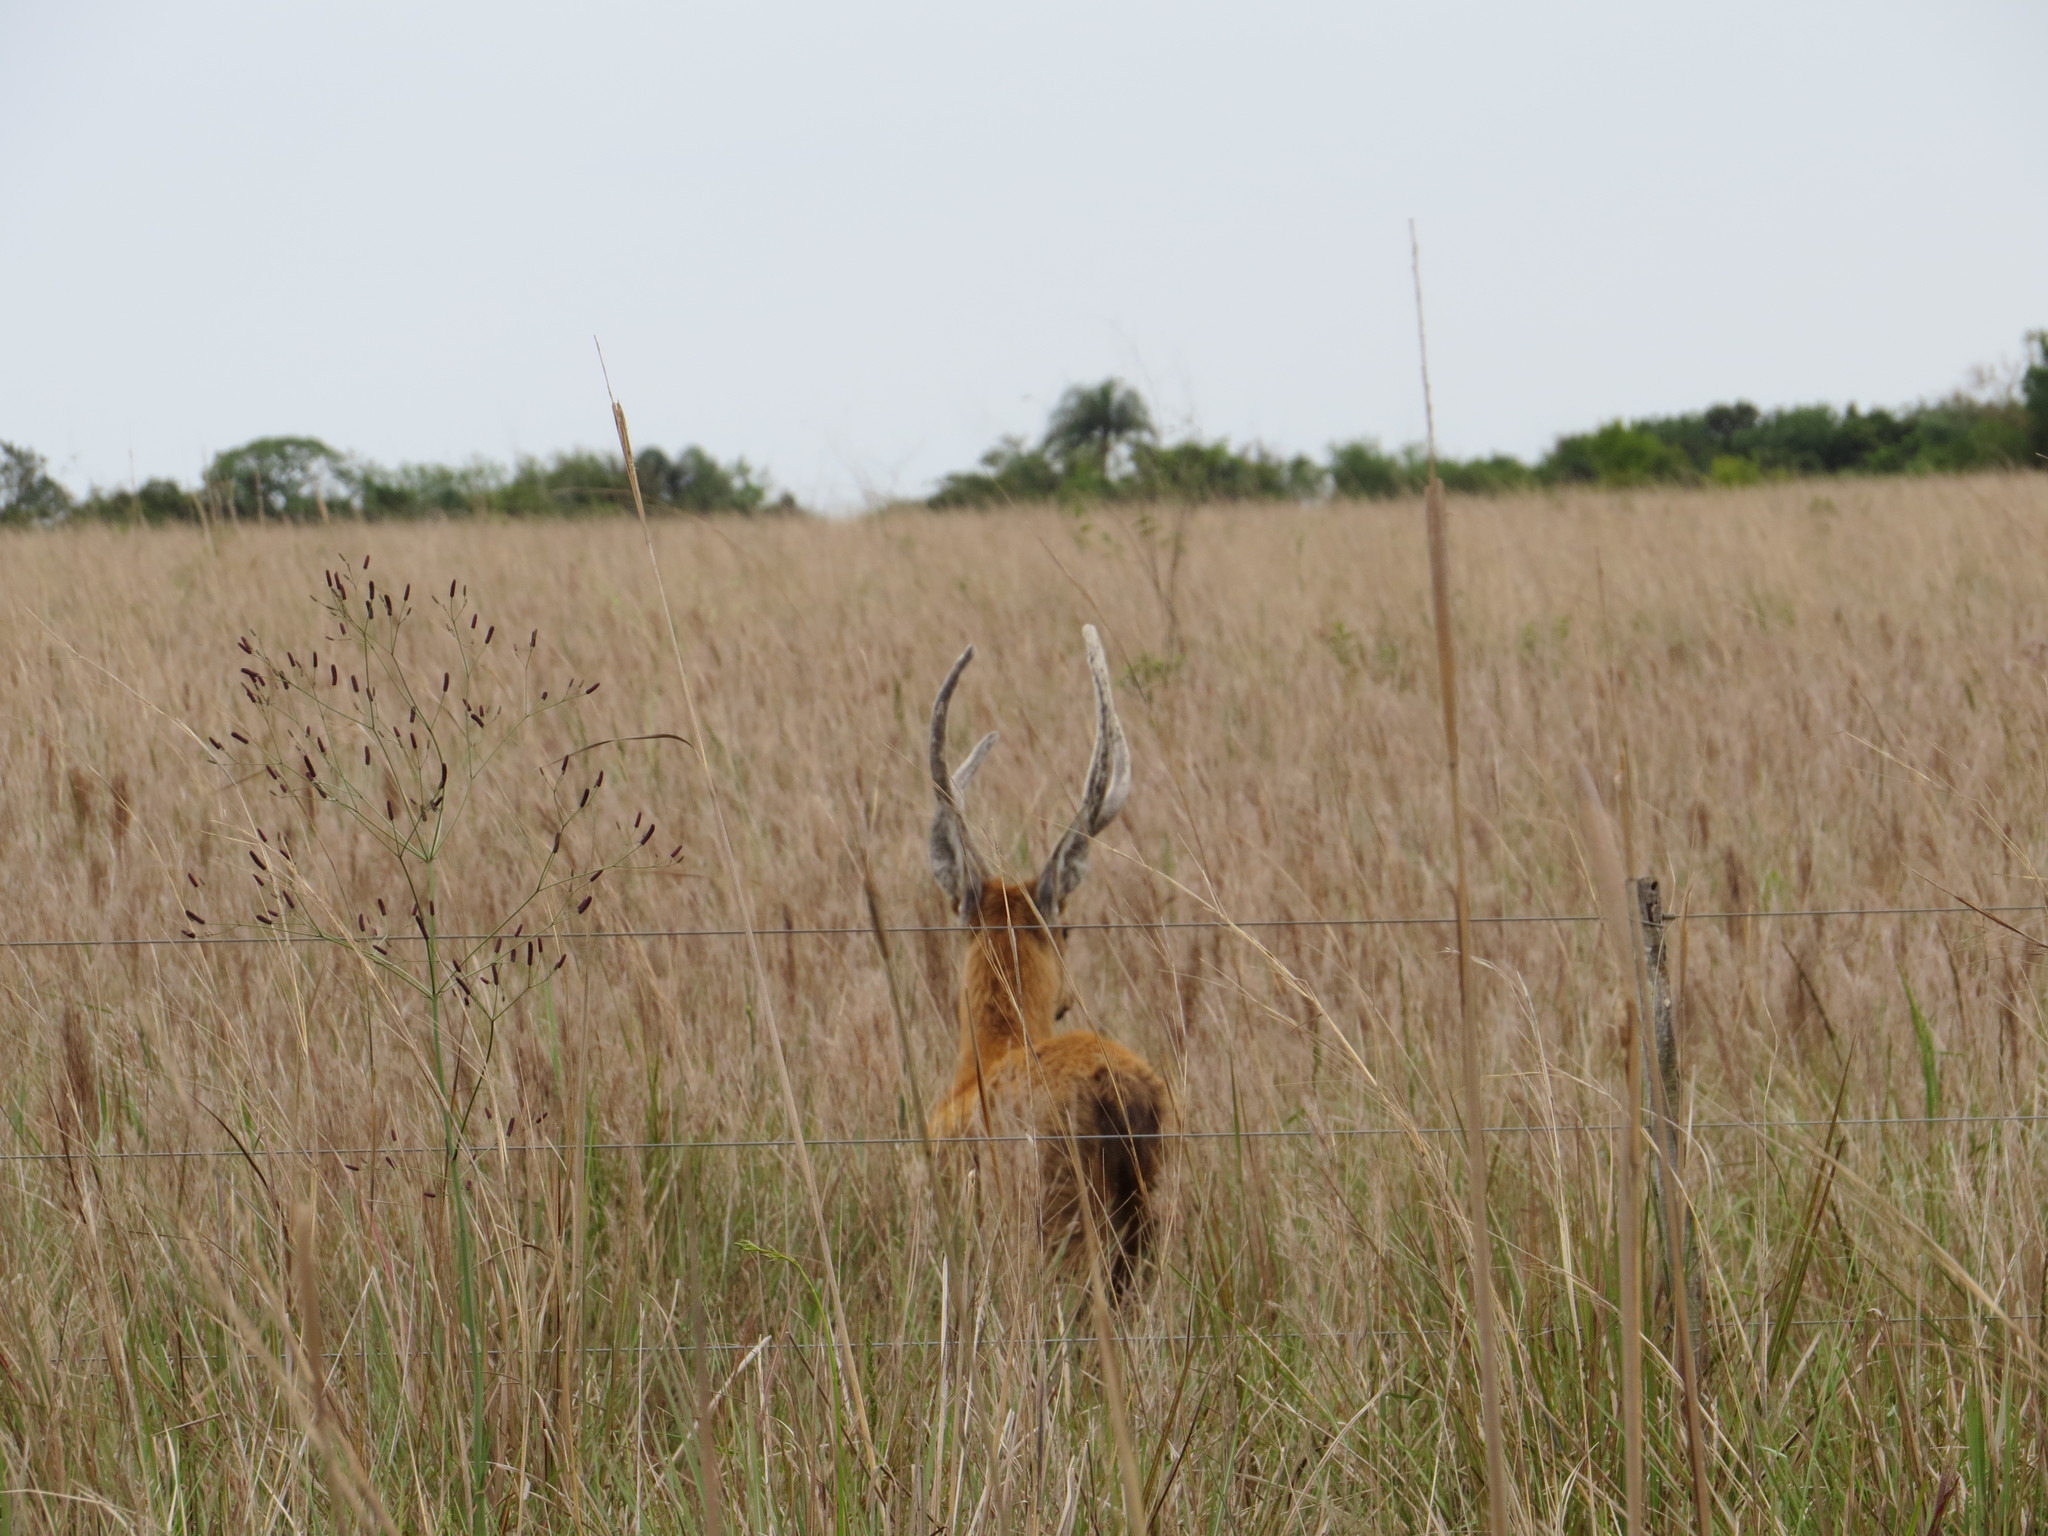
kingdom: Animalia
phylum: Chordata
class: Mammalia
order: Artiodactyla
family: Cervidae
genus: Blastocerus
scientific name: Blastocerus dichotomus
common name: Marsh deer
